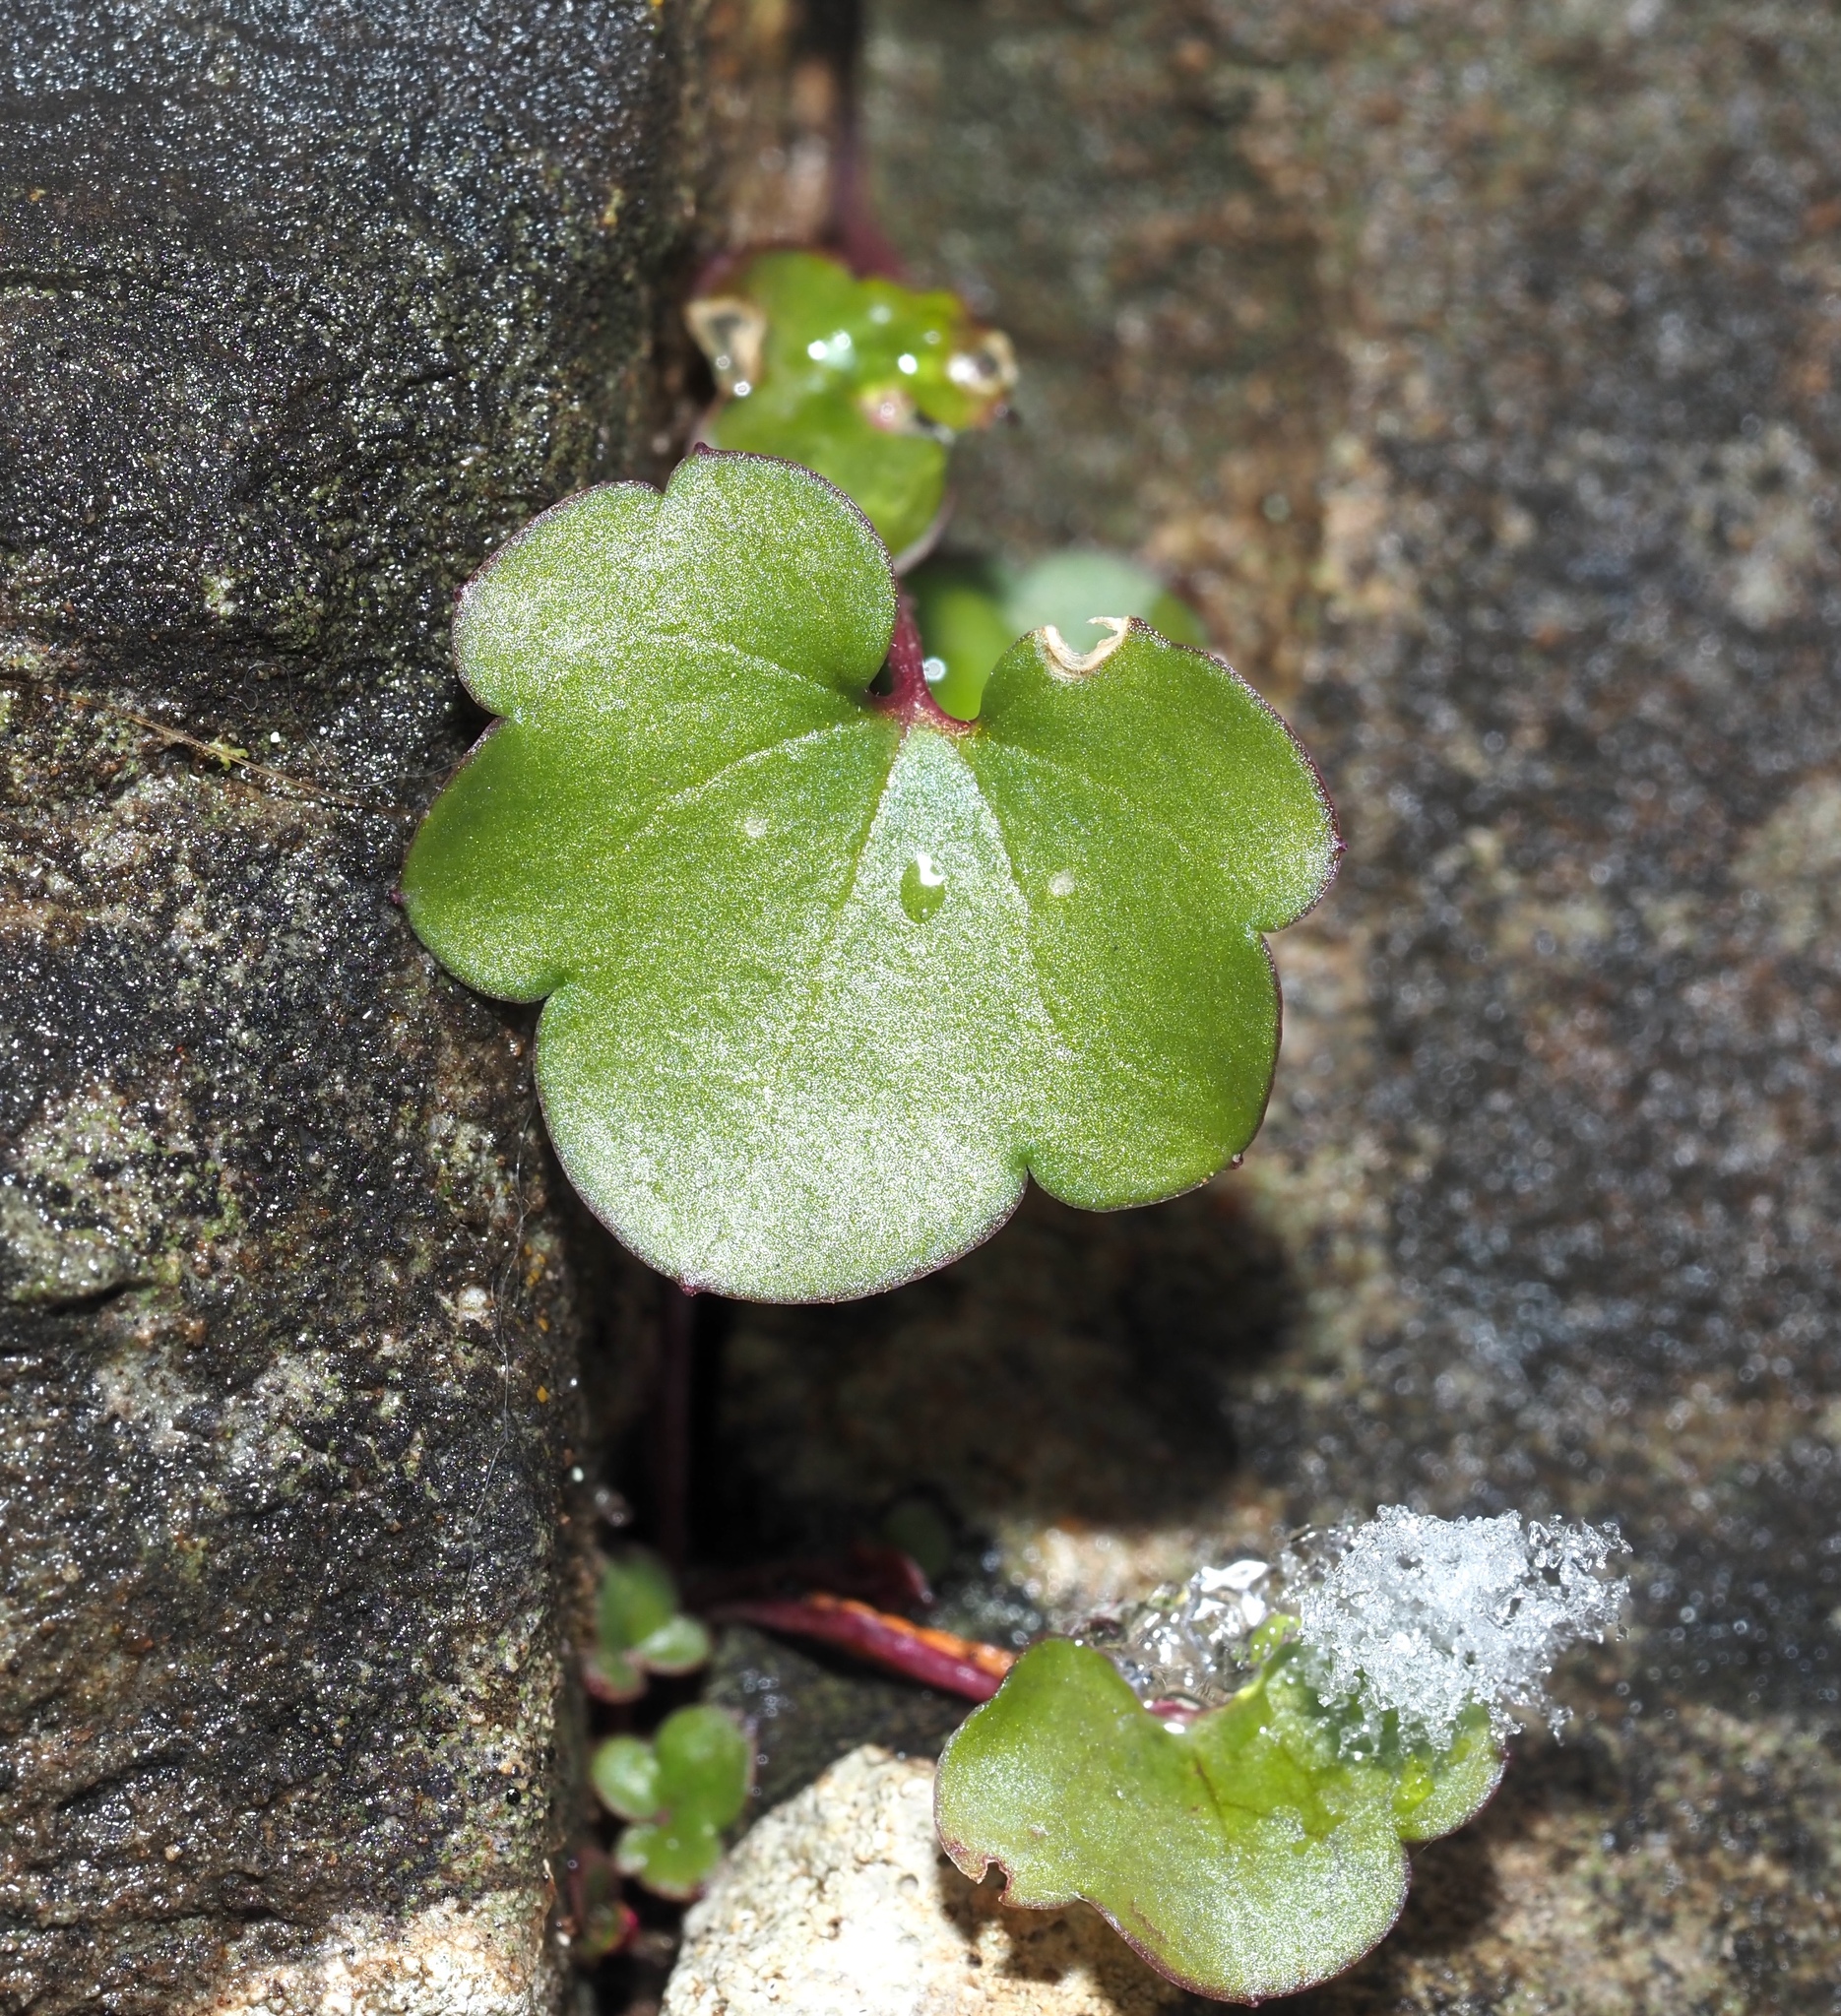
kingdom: Plantae
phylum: Tracheophyta
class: Magnoliopsida
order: Lamiales
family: Plantaginaceae
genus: Cymbalaria
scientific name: Cymbalaria muralis
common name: Ivy-leaved toadflax
